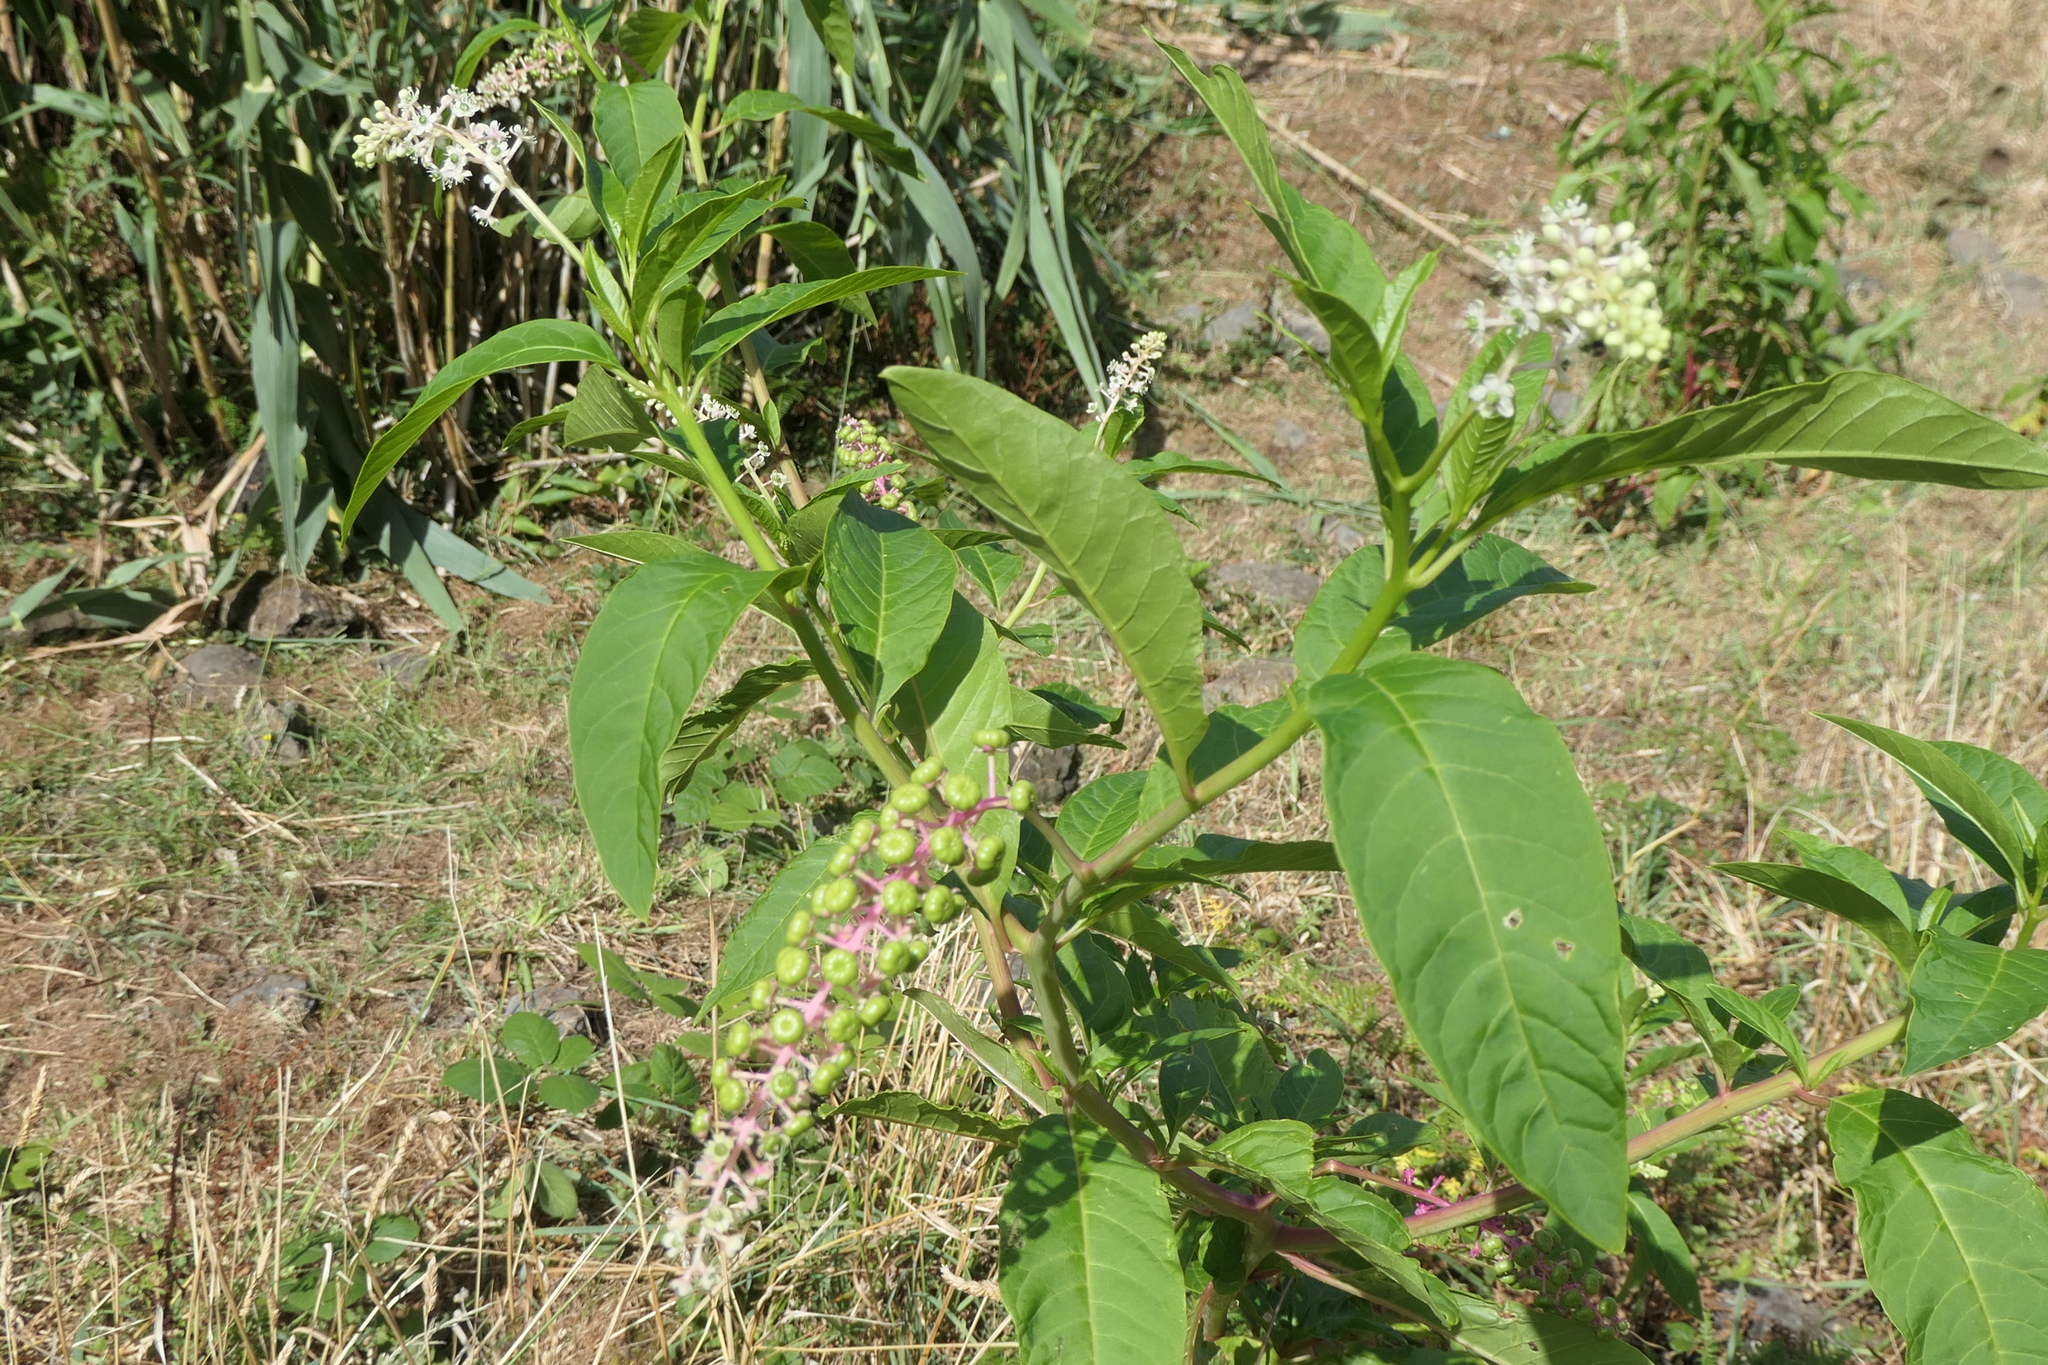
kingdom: Plantae
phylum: Tracheophyta
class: Magnoliopsida
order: Caryophyllales
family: Phytolaccaceae
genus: Phytolacca
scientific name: Phytolacca americana
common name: American pokeweed
